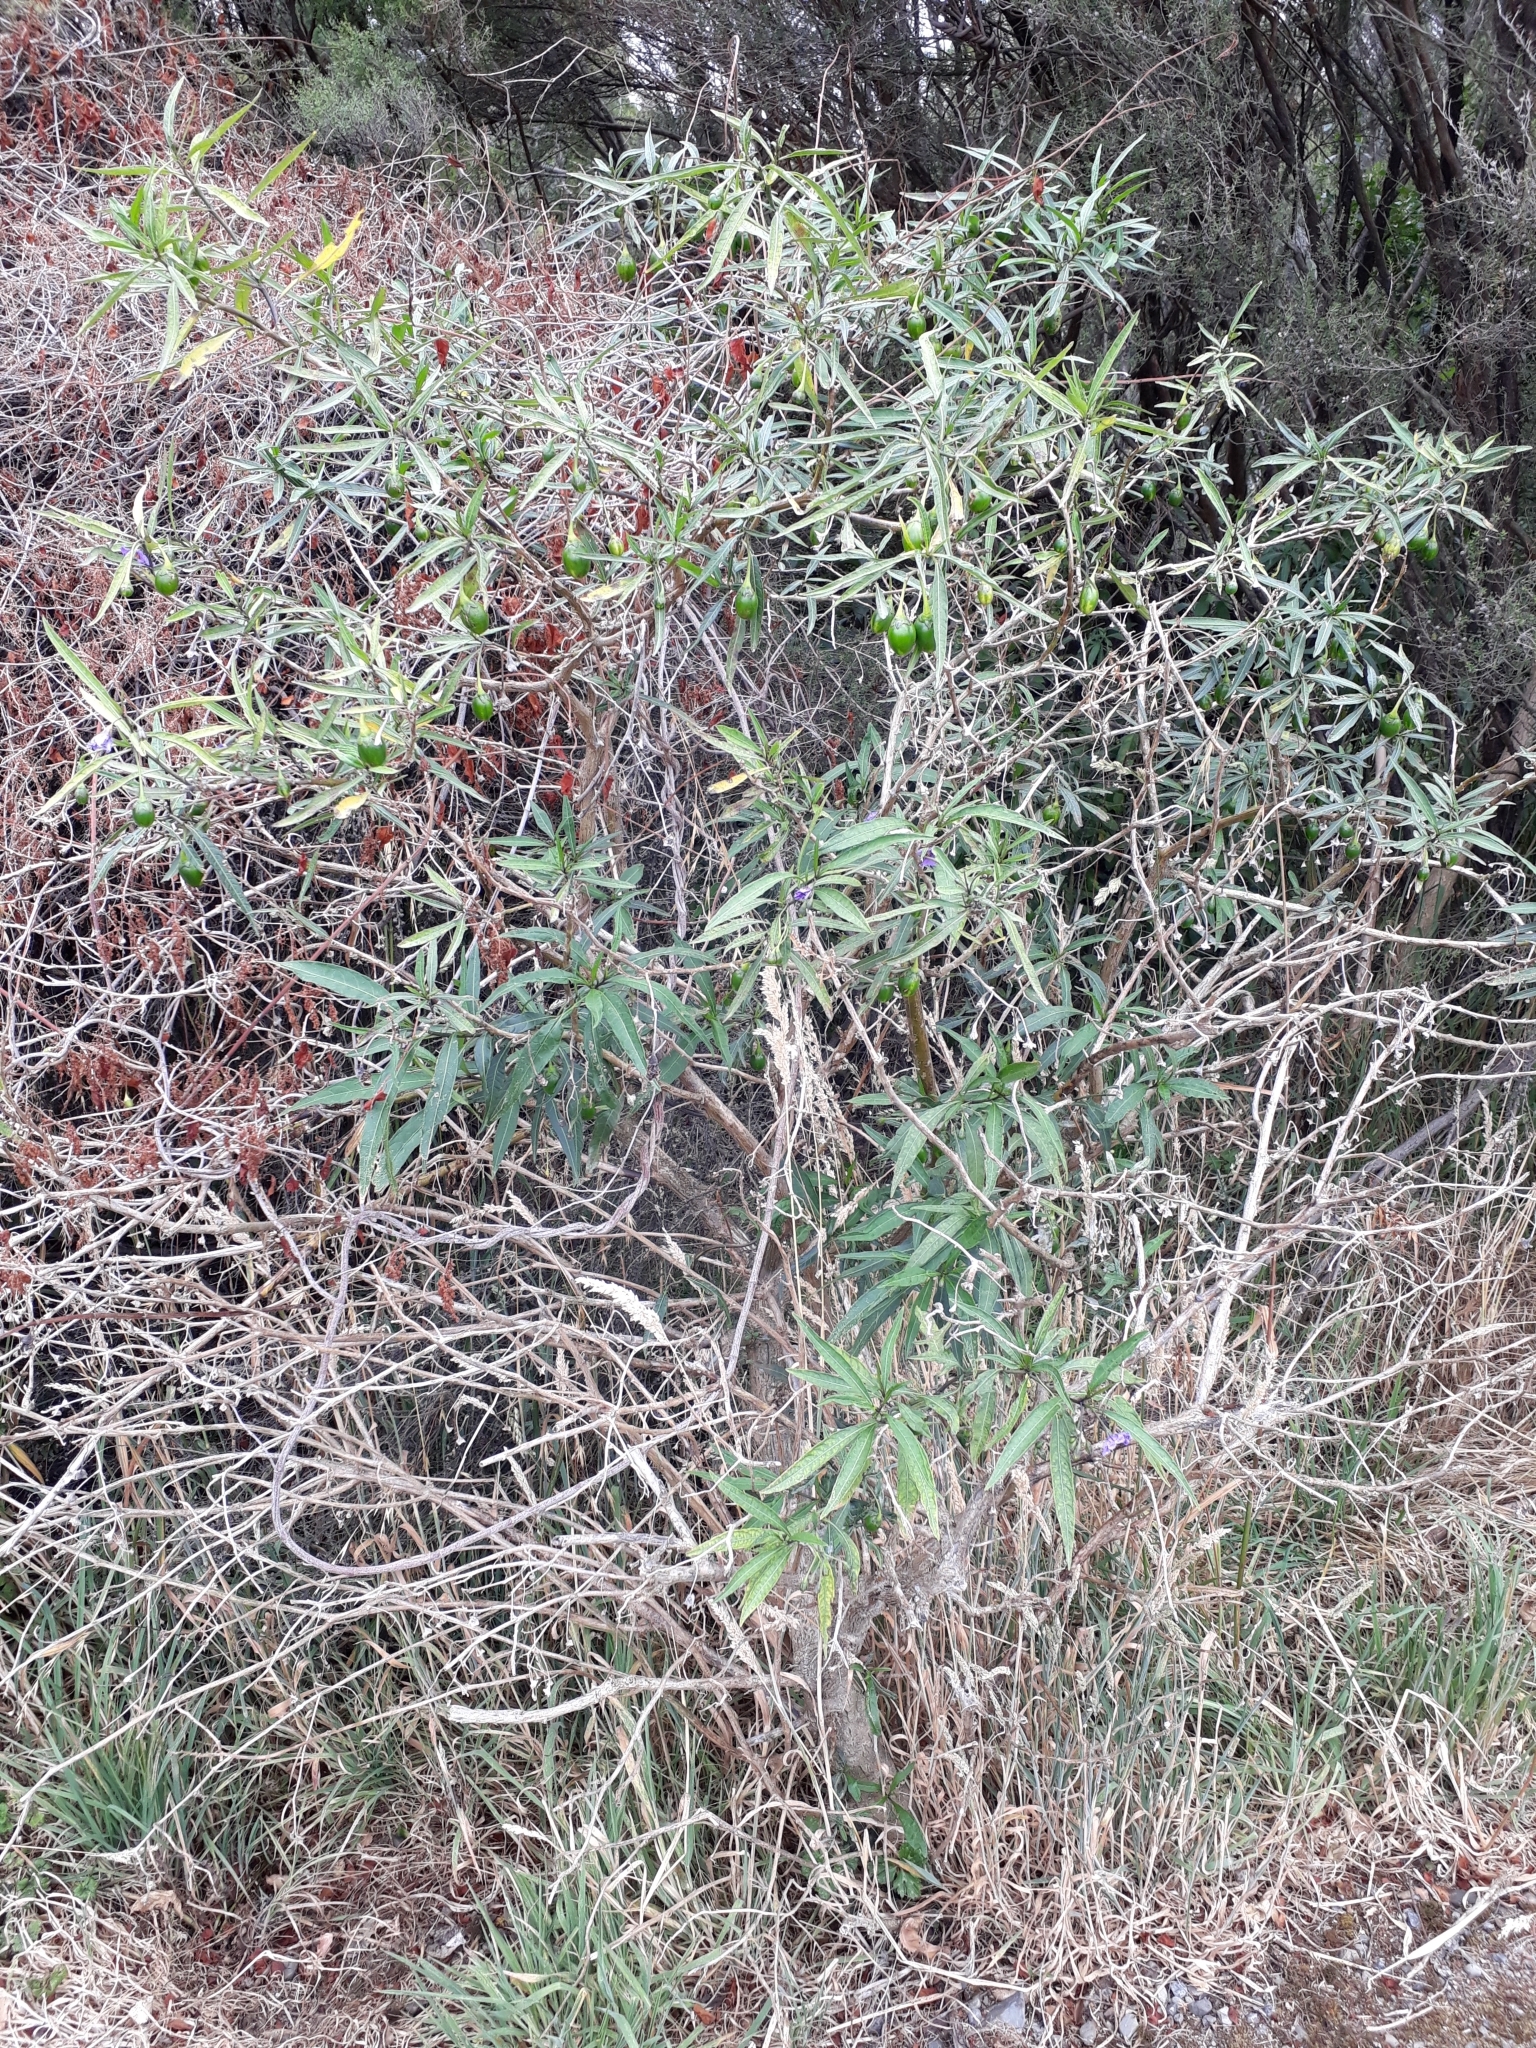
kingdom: Plantae
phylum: Tracheophyta
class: Magnoliopsida
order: Solanales
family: Solanaceae
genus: Solanum
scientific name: Solanum laciniatum
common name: Kangaroo-apple
